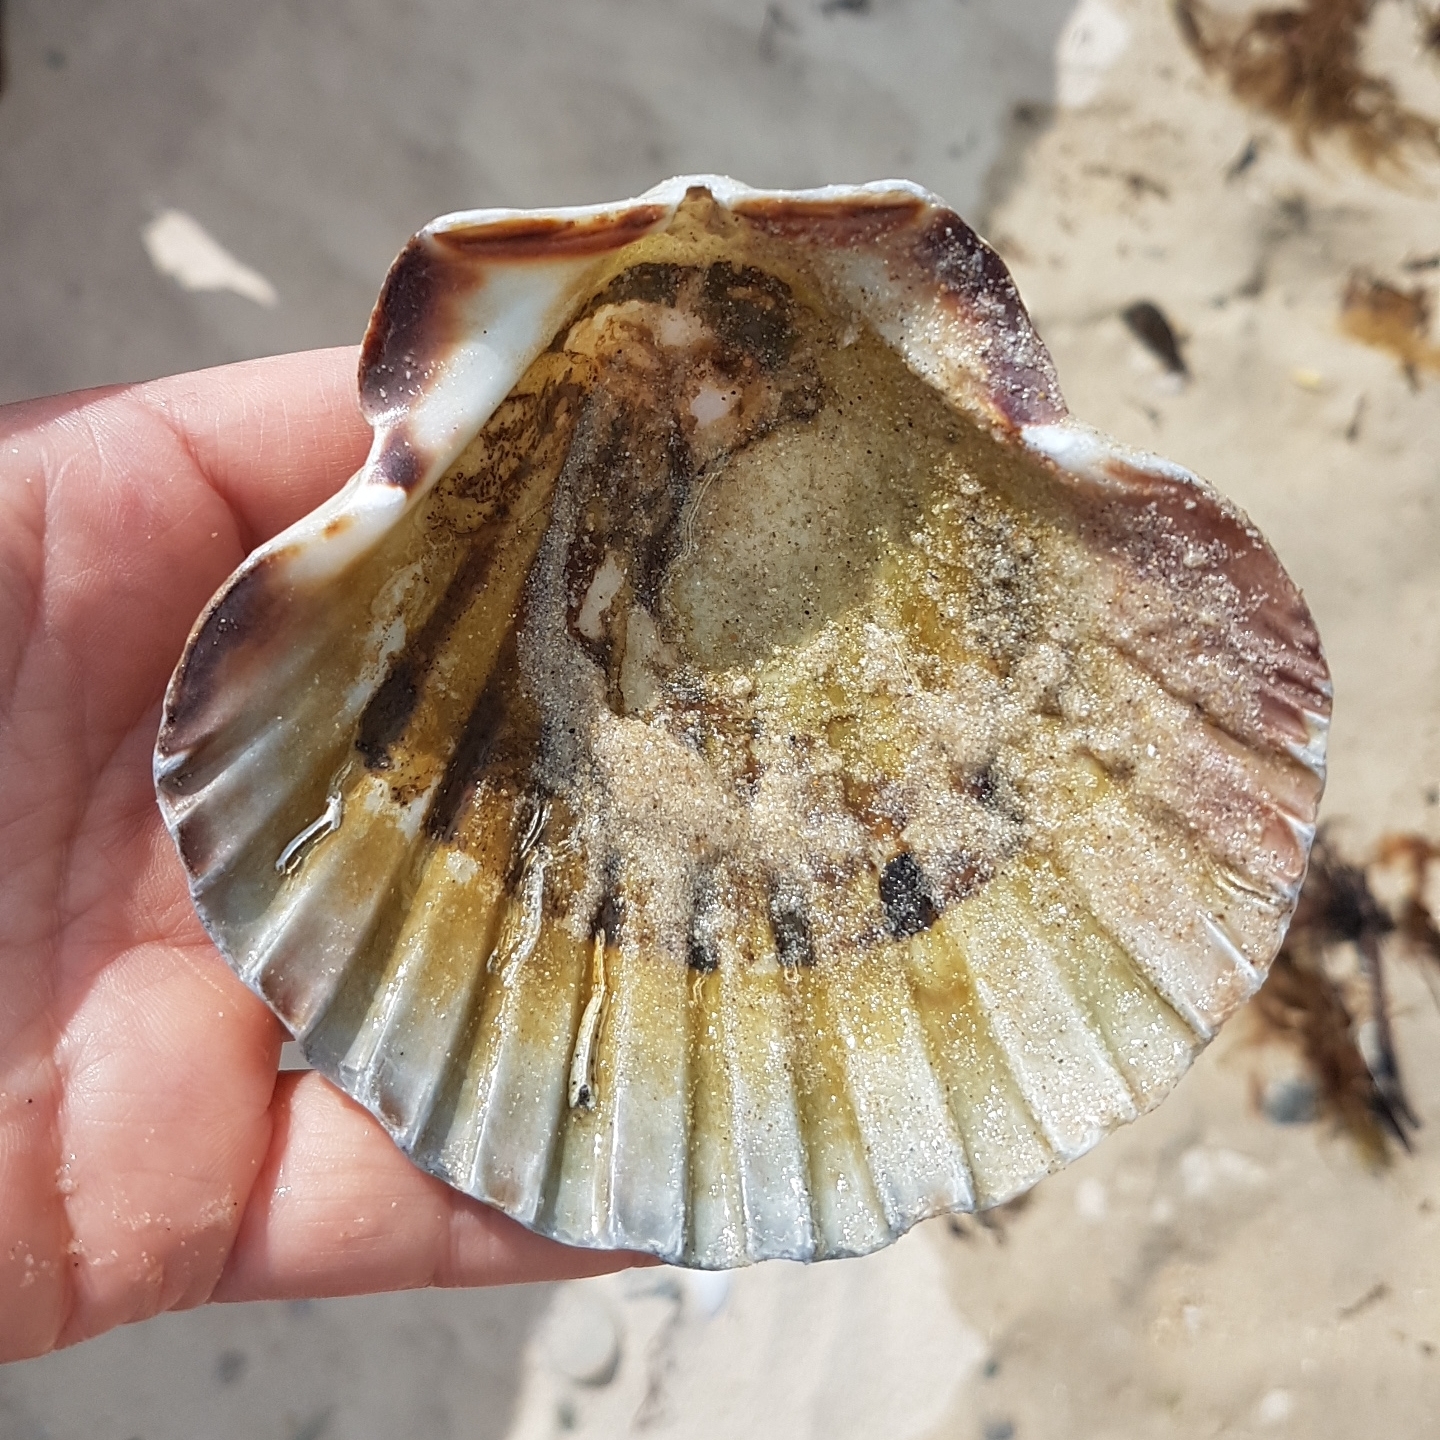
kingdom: Animalia
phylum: Mollusca
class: Bivalvia
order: Pectinida
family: Pectinidae
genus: Pecten
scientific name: Pecten maximus
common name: Great scallop
